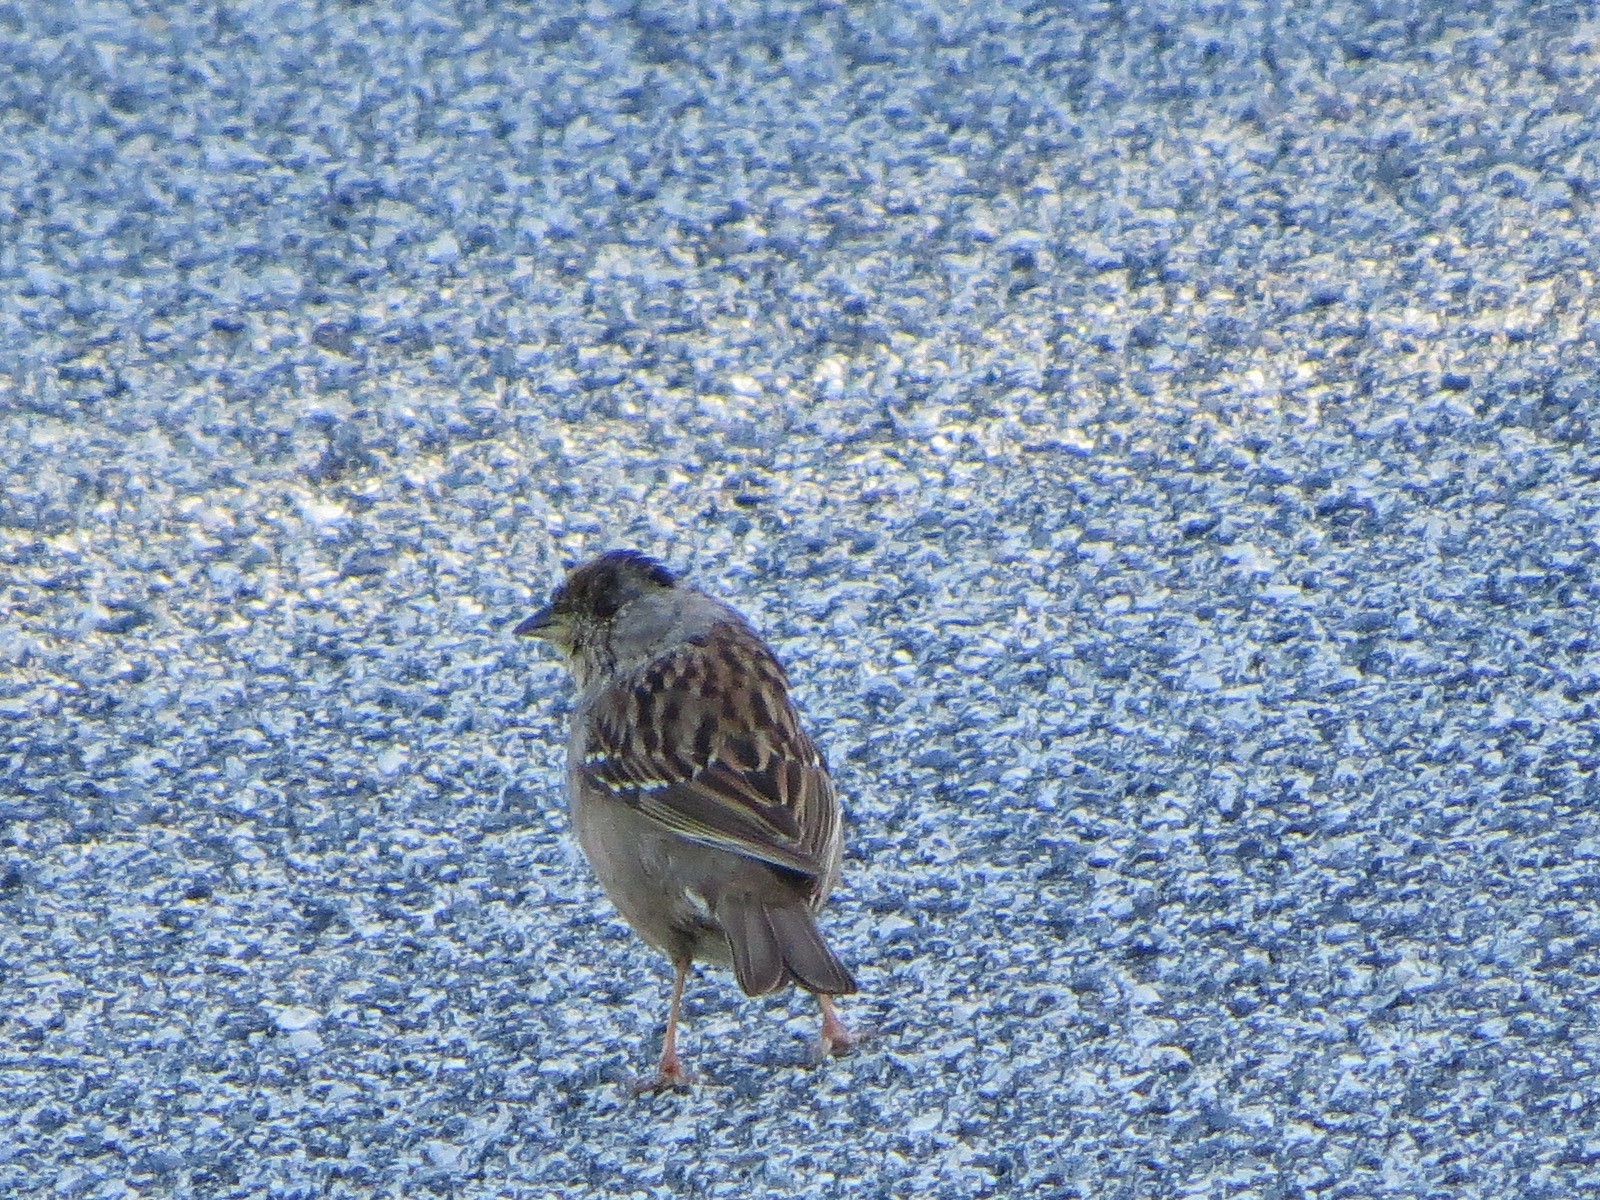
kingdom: Animalia
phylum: Chordata
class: Aves
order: Passeriformes
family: Passerellidae
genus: Zonotrichia
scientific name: Zonotrichia atricapilla
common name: Golden-crowned sparrow
